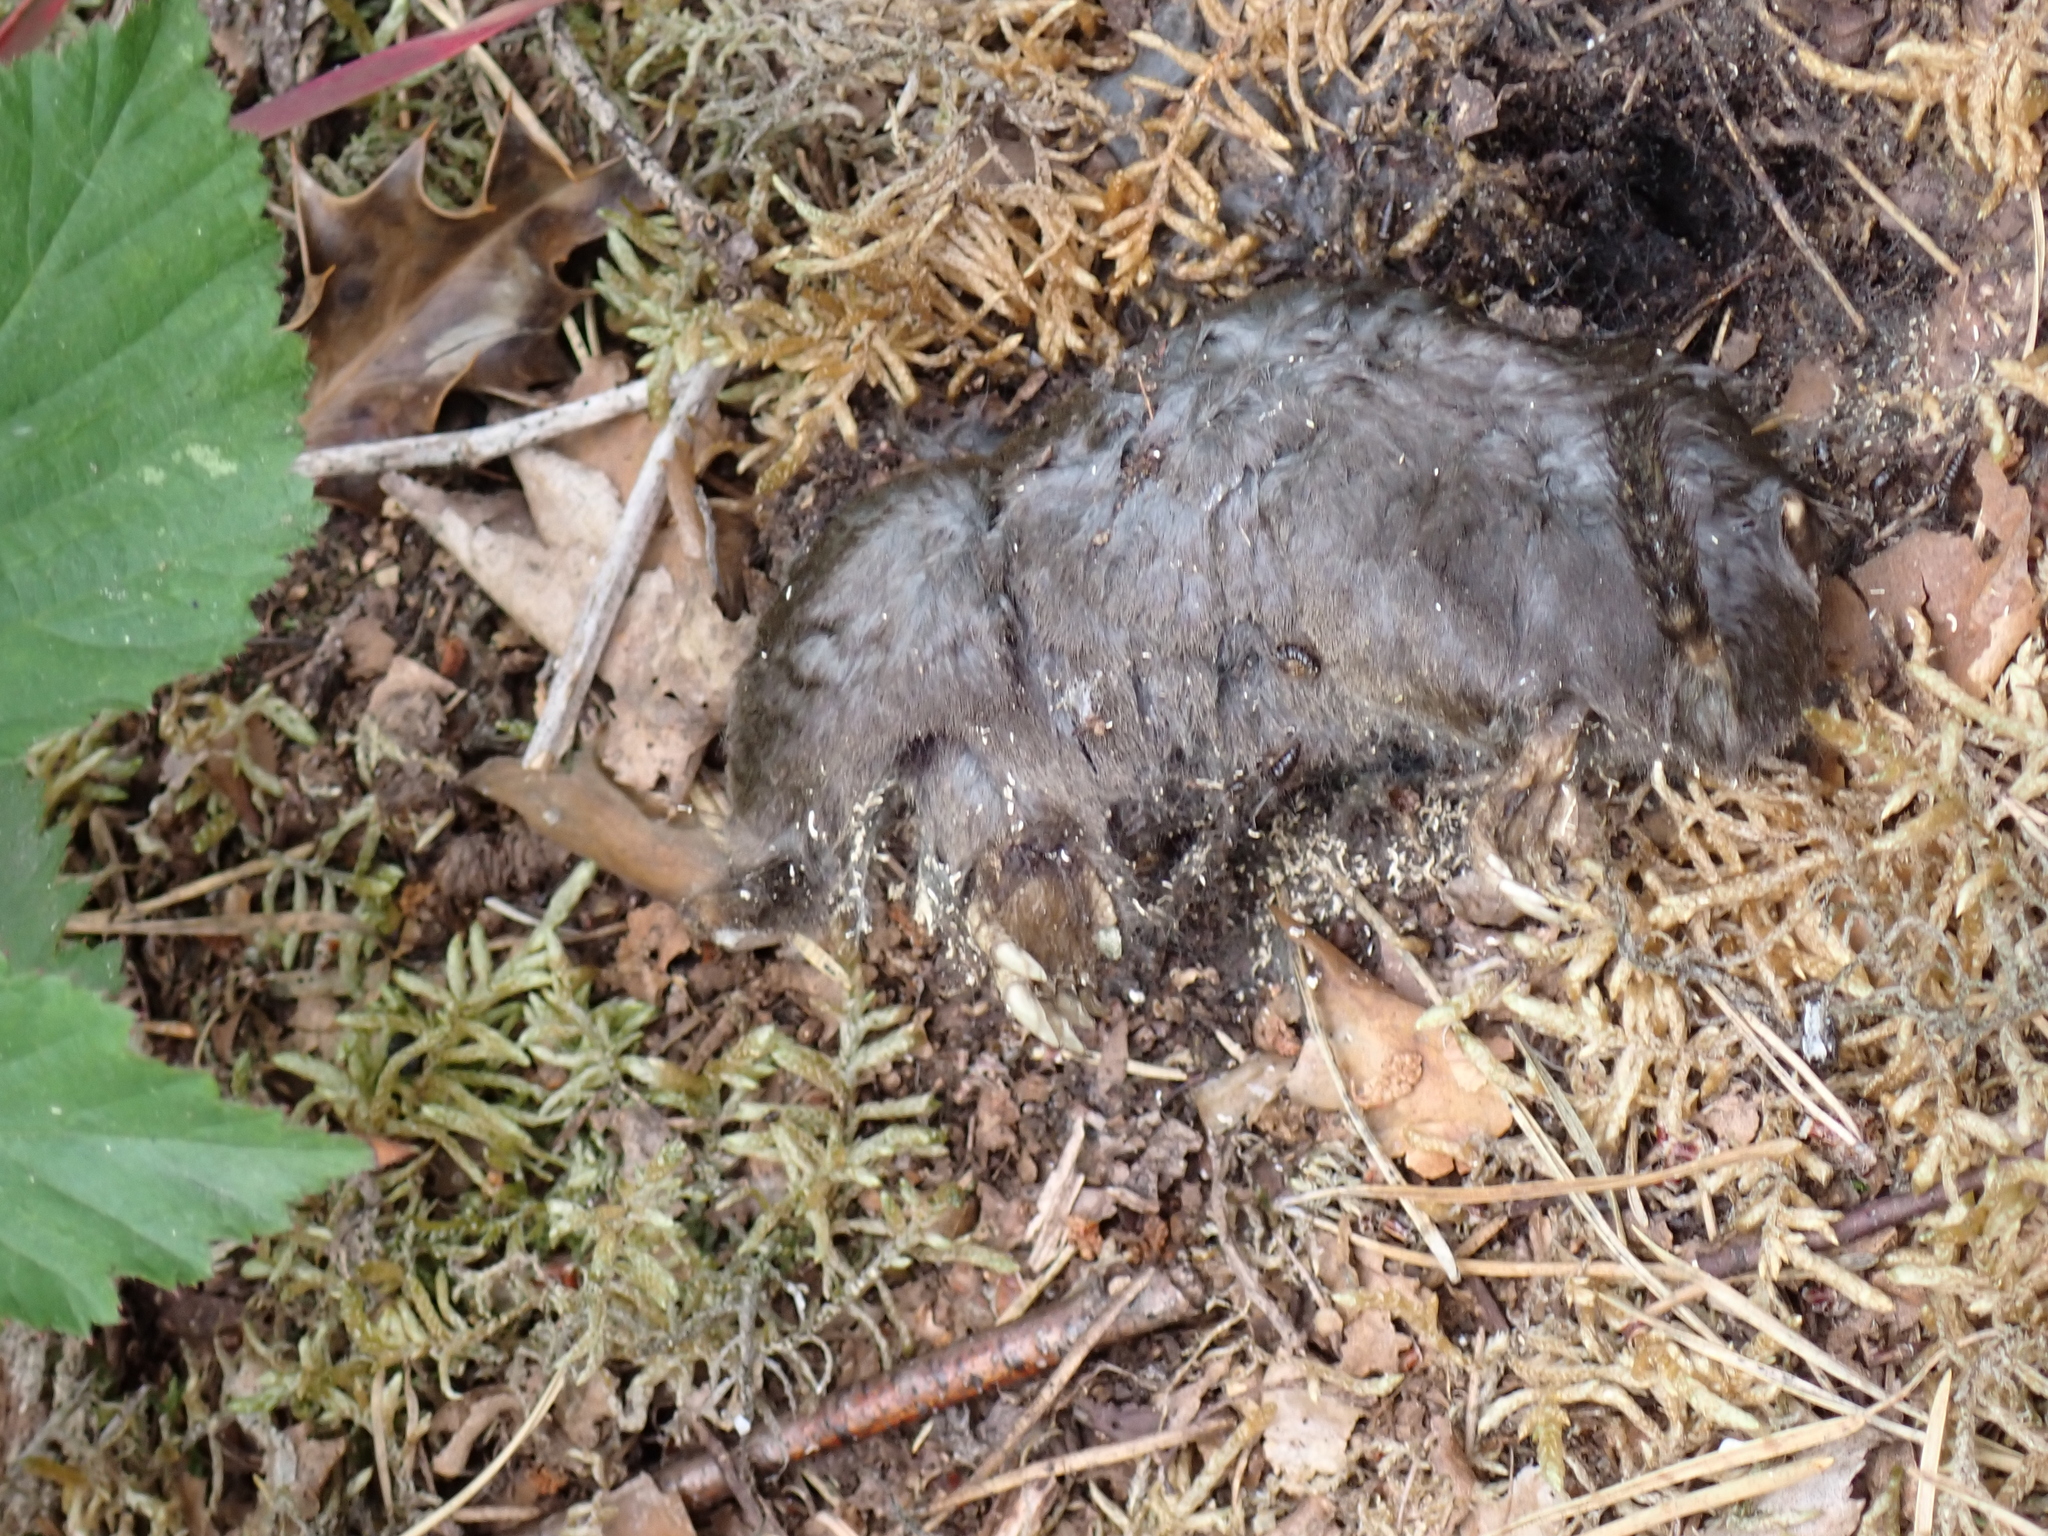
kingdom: Animalia
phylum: Chordata
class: Mammalia
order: Soricomorpha
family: Talpidae
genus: Talpa
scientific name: Talpa europaea
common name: European mole
